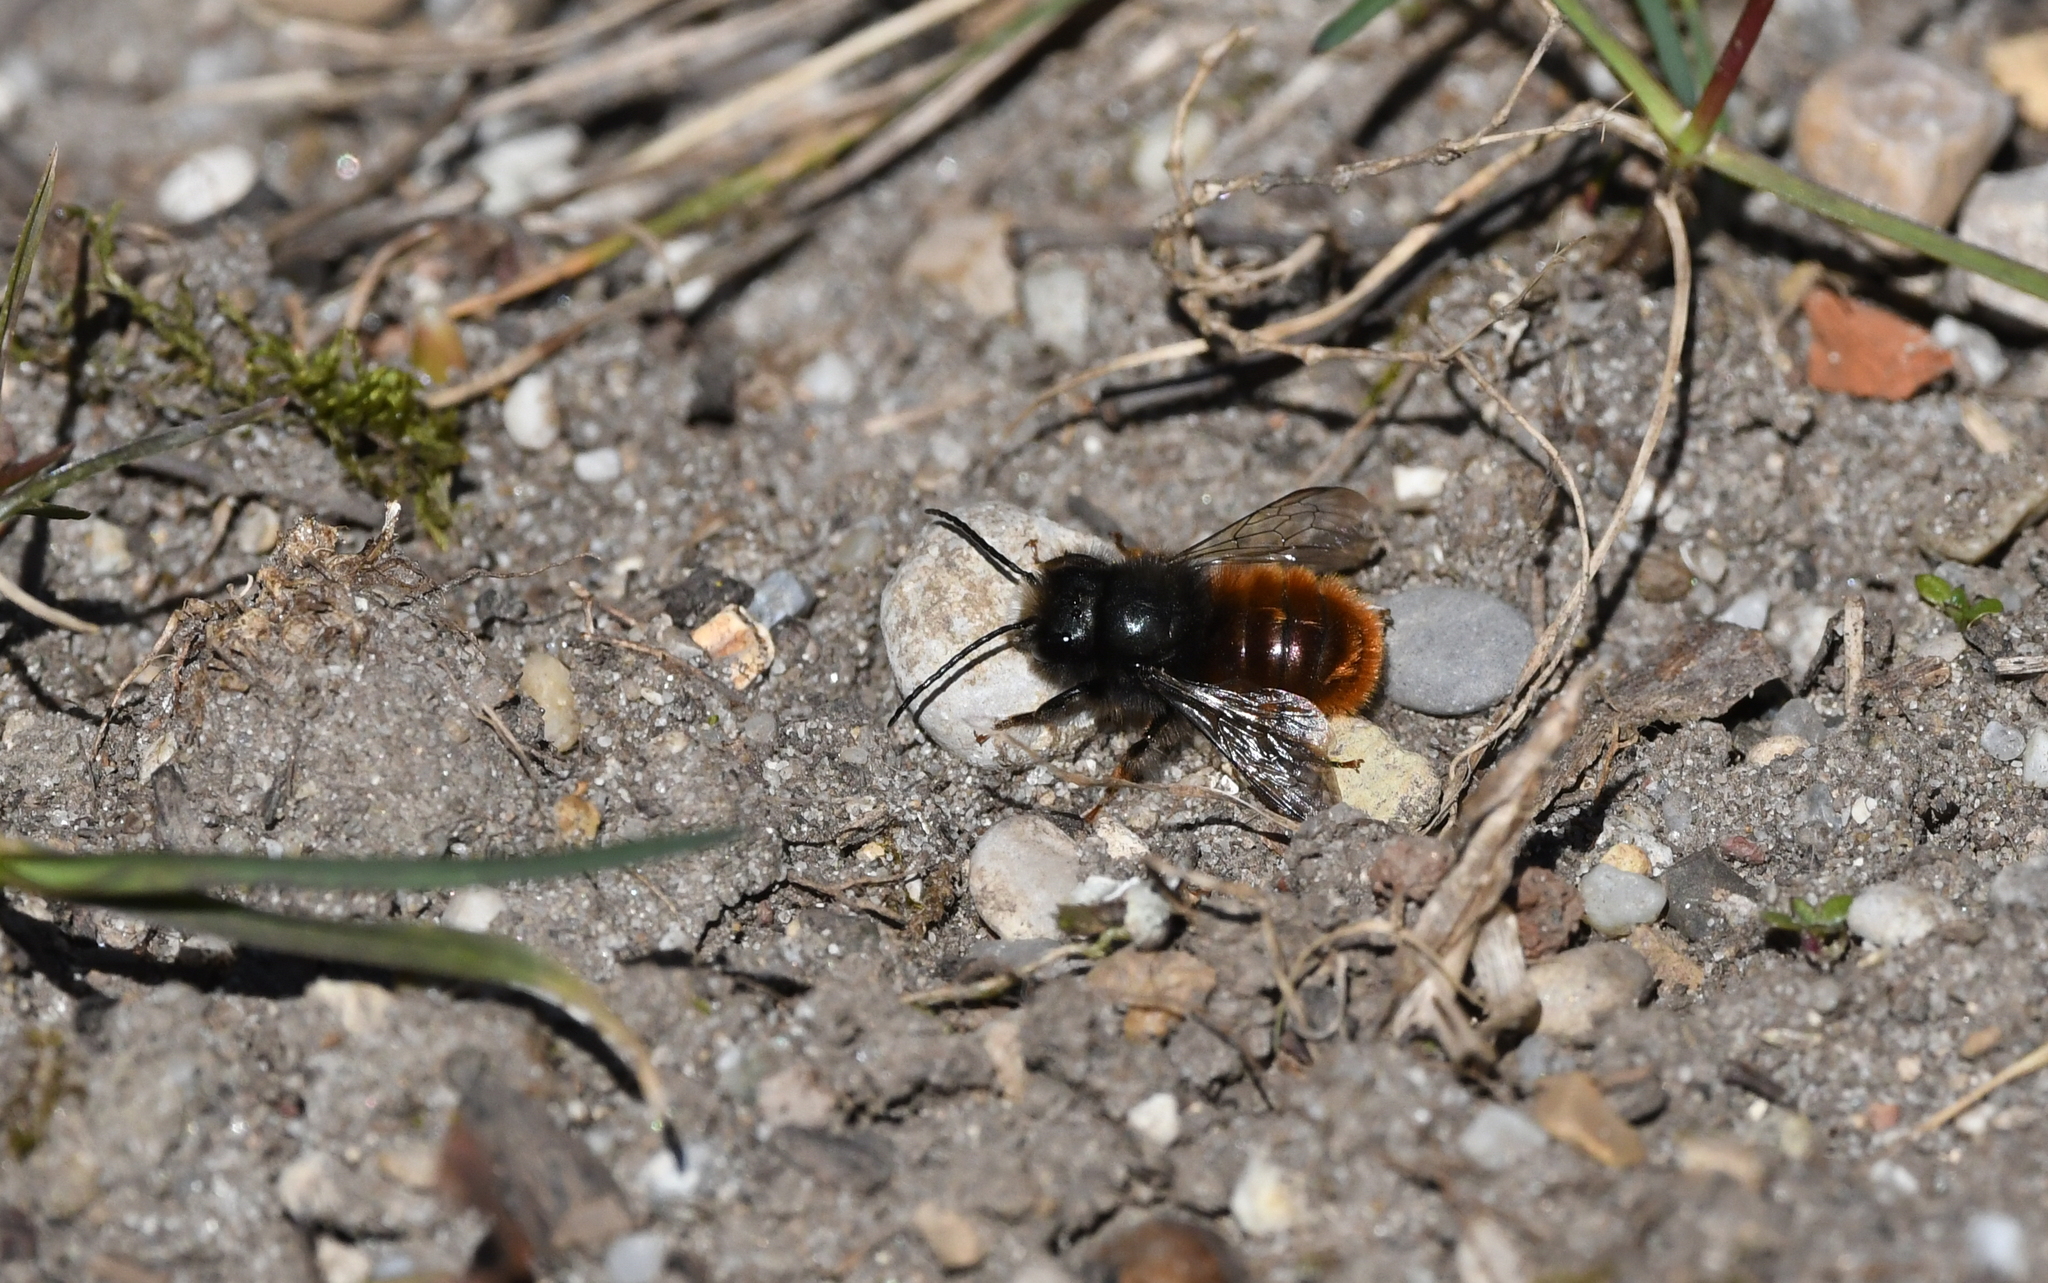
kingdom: Animalia
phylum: Arthropoda
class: Insecta
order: Hymenoptera
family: Megachilidae
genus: Osmia
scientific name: Osmia cornuta
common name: Mason bee
